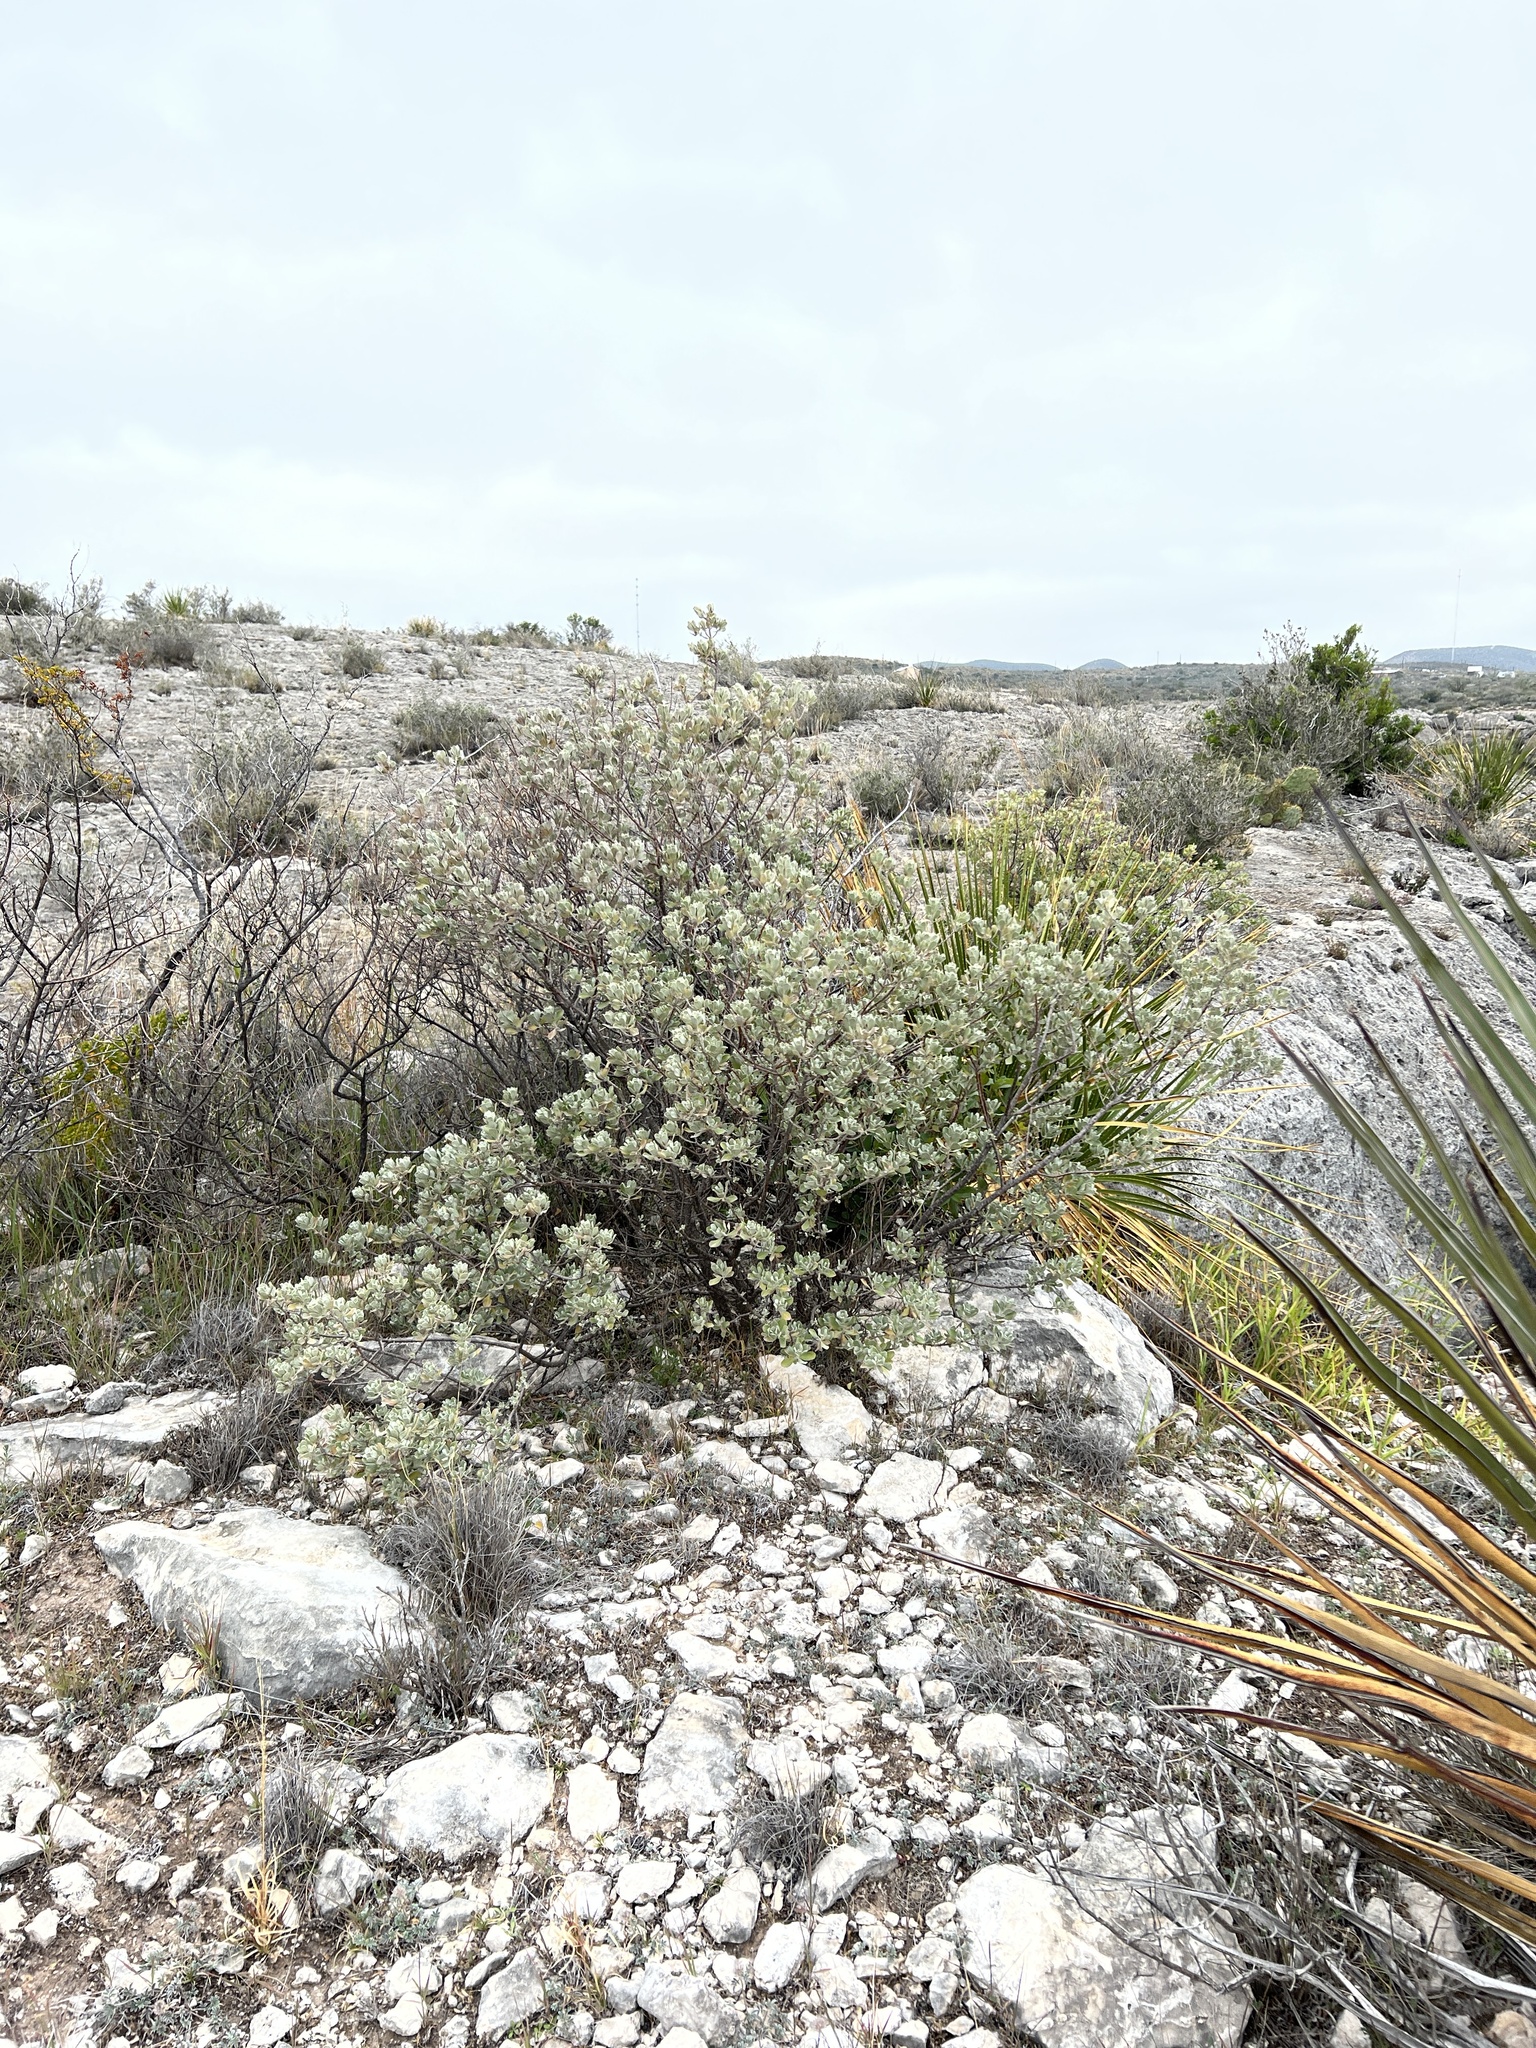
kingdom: Plantae
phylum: Tracheophyta
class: Magnoliopsida
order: Lamiales
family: Scrophulariaceae
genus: Leucophyllum
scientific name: Leucophyllum frutescens
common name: Texas silverleaf
